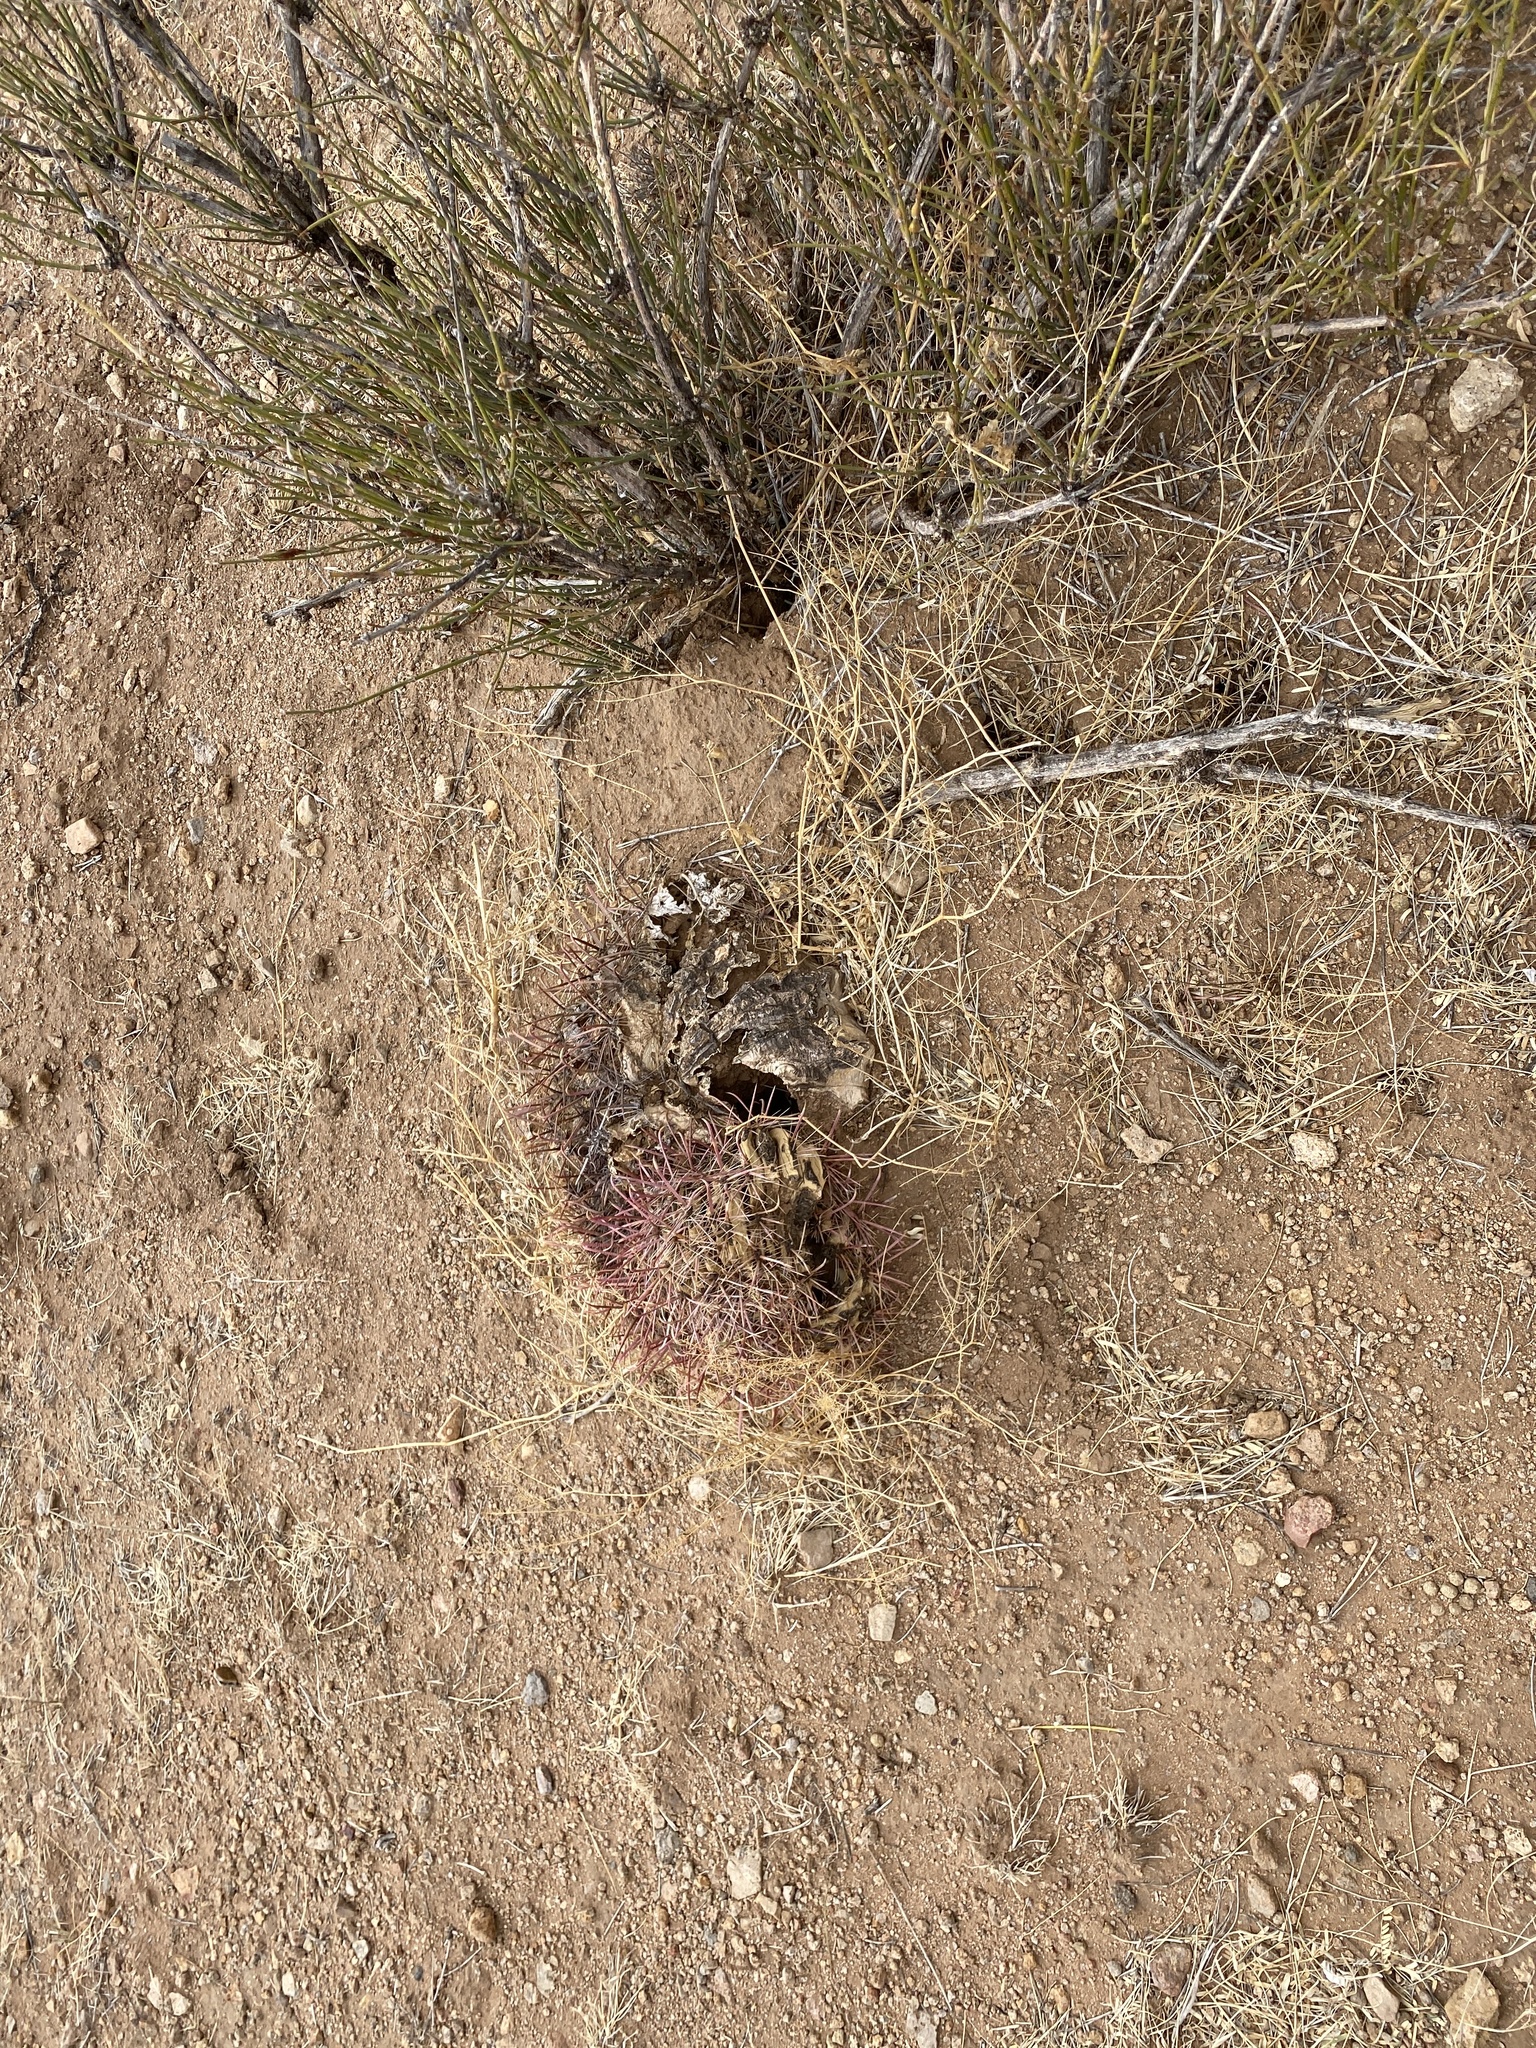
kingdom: Plantae
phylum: Tracheophyta
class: Magnoliopsida
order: Caryophyllales
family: Cactaceae
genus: Ferocactus
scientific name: Ferocactus wislizeni
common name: Candy barrel cactus
